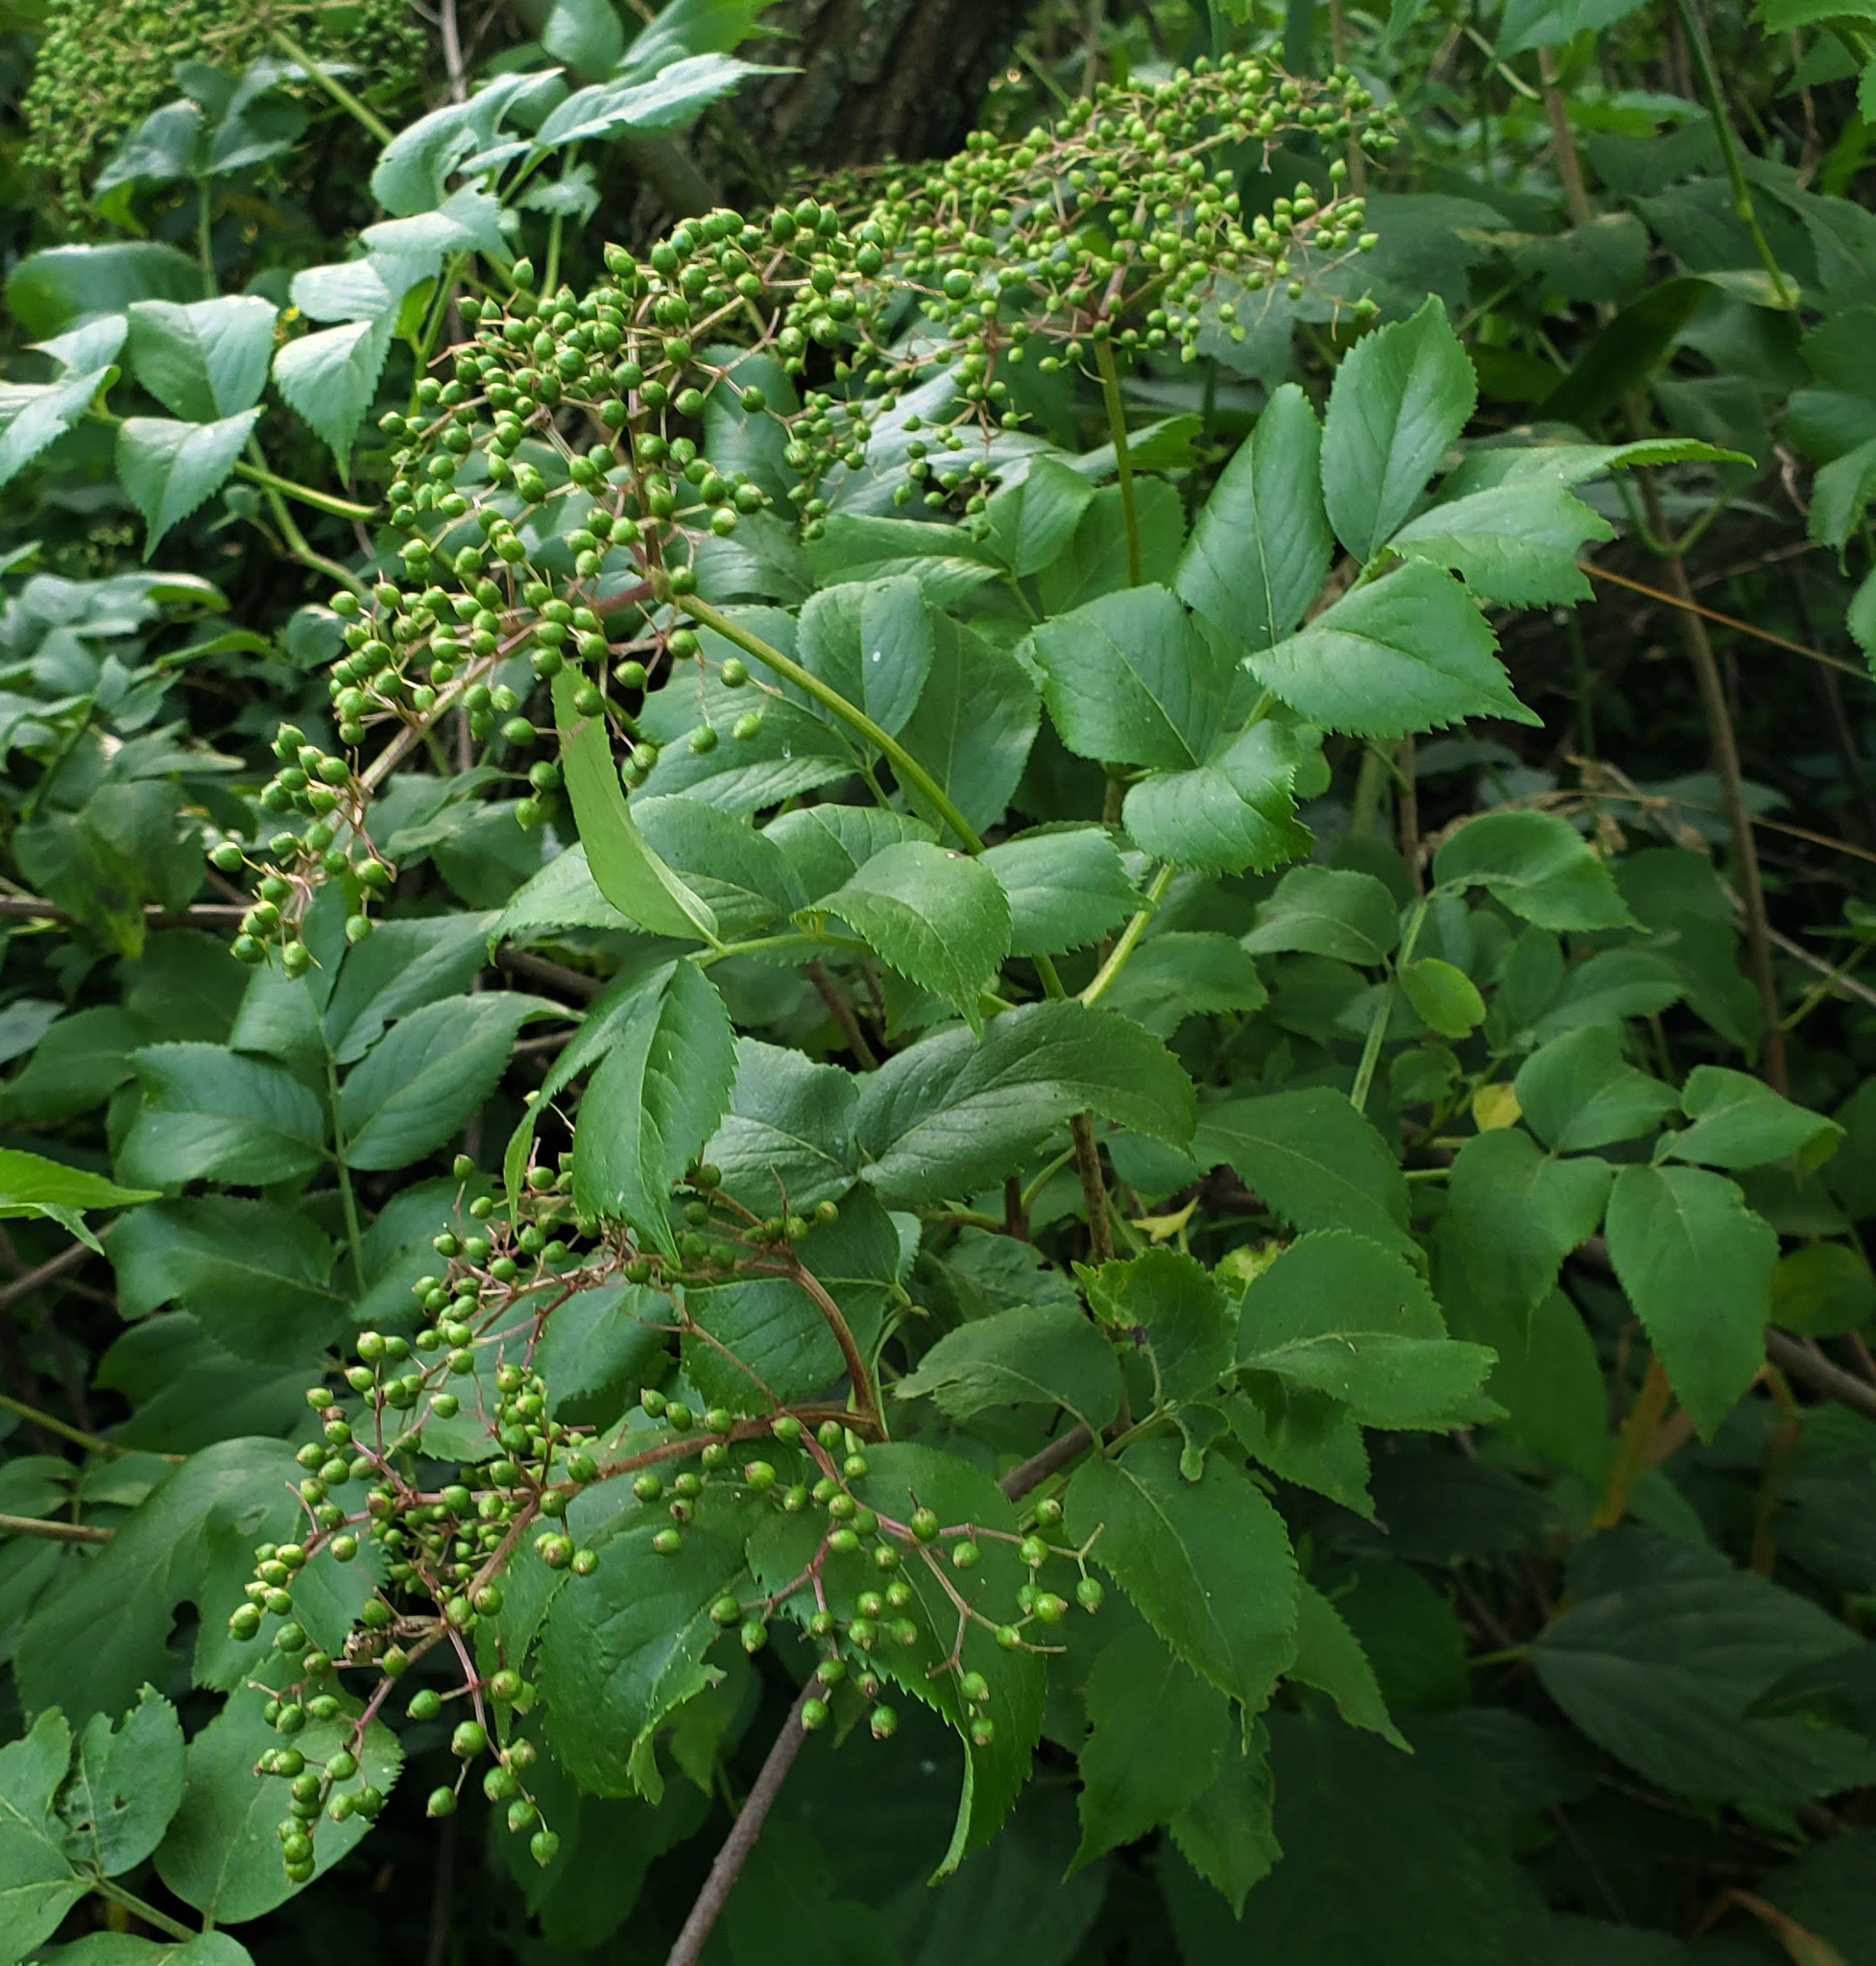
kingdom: Plantae
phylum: Tracheophyta
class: Magnoliopsida
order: Dipsacales
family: Viburnaceae
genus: Sambucus
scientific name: Sambucus canadensis
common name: American elder
